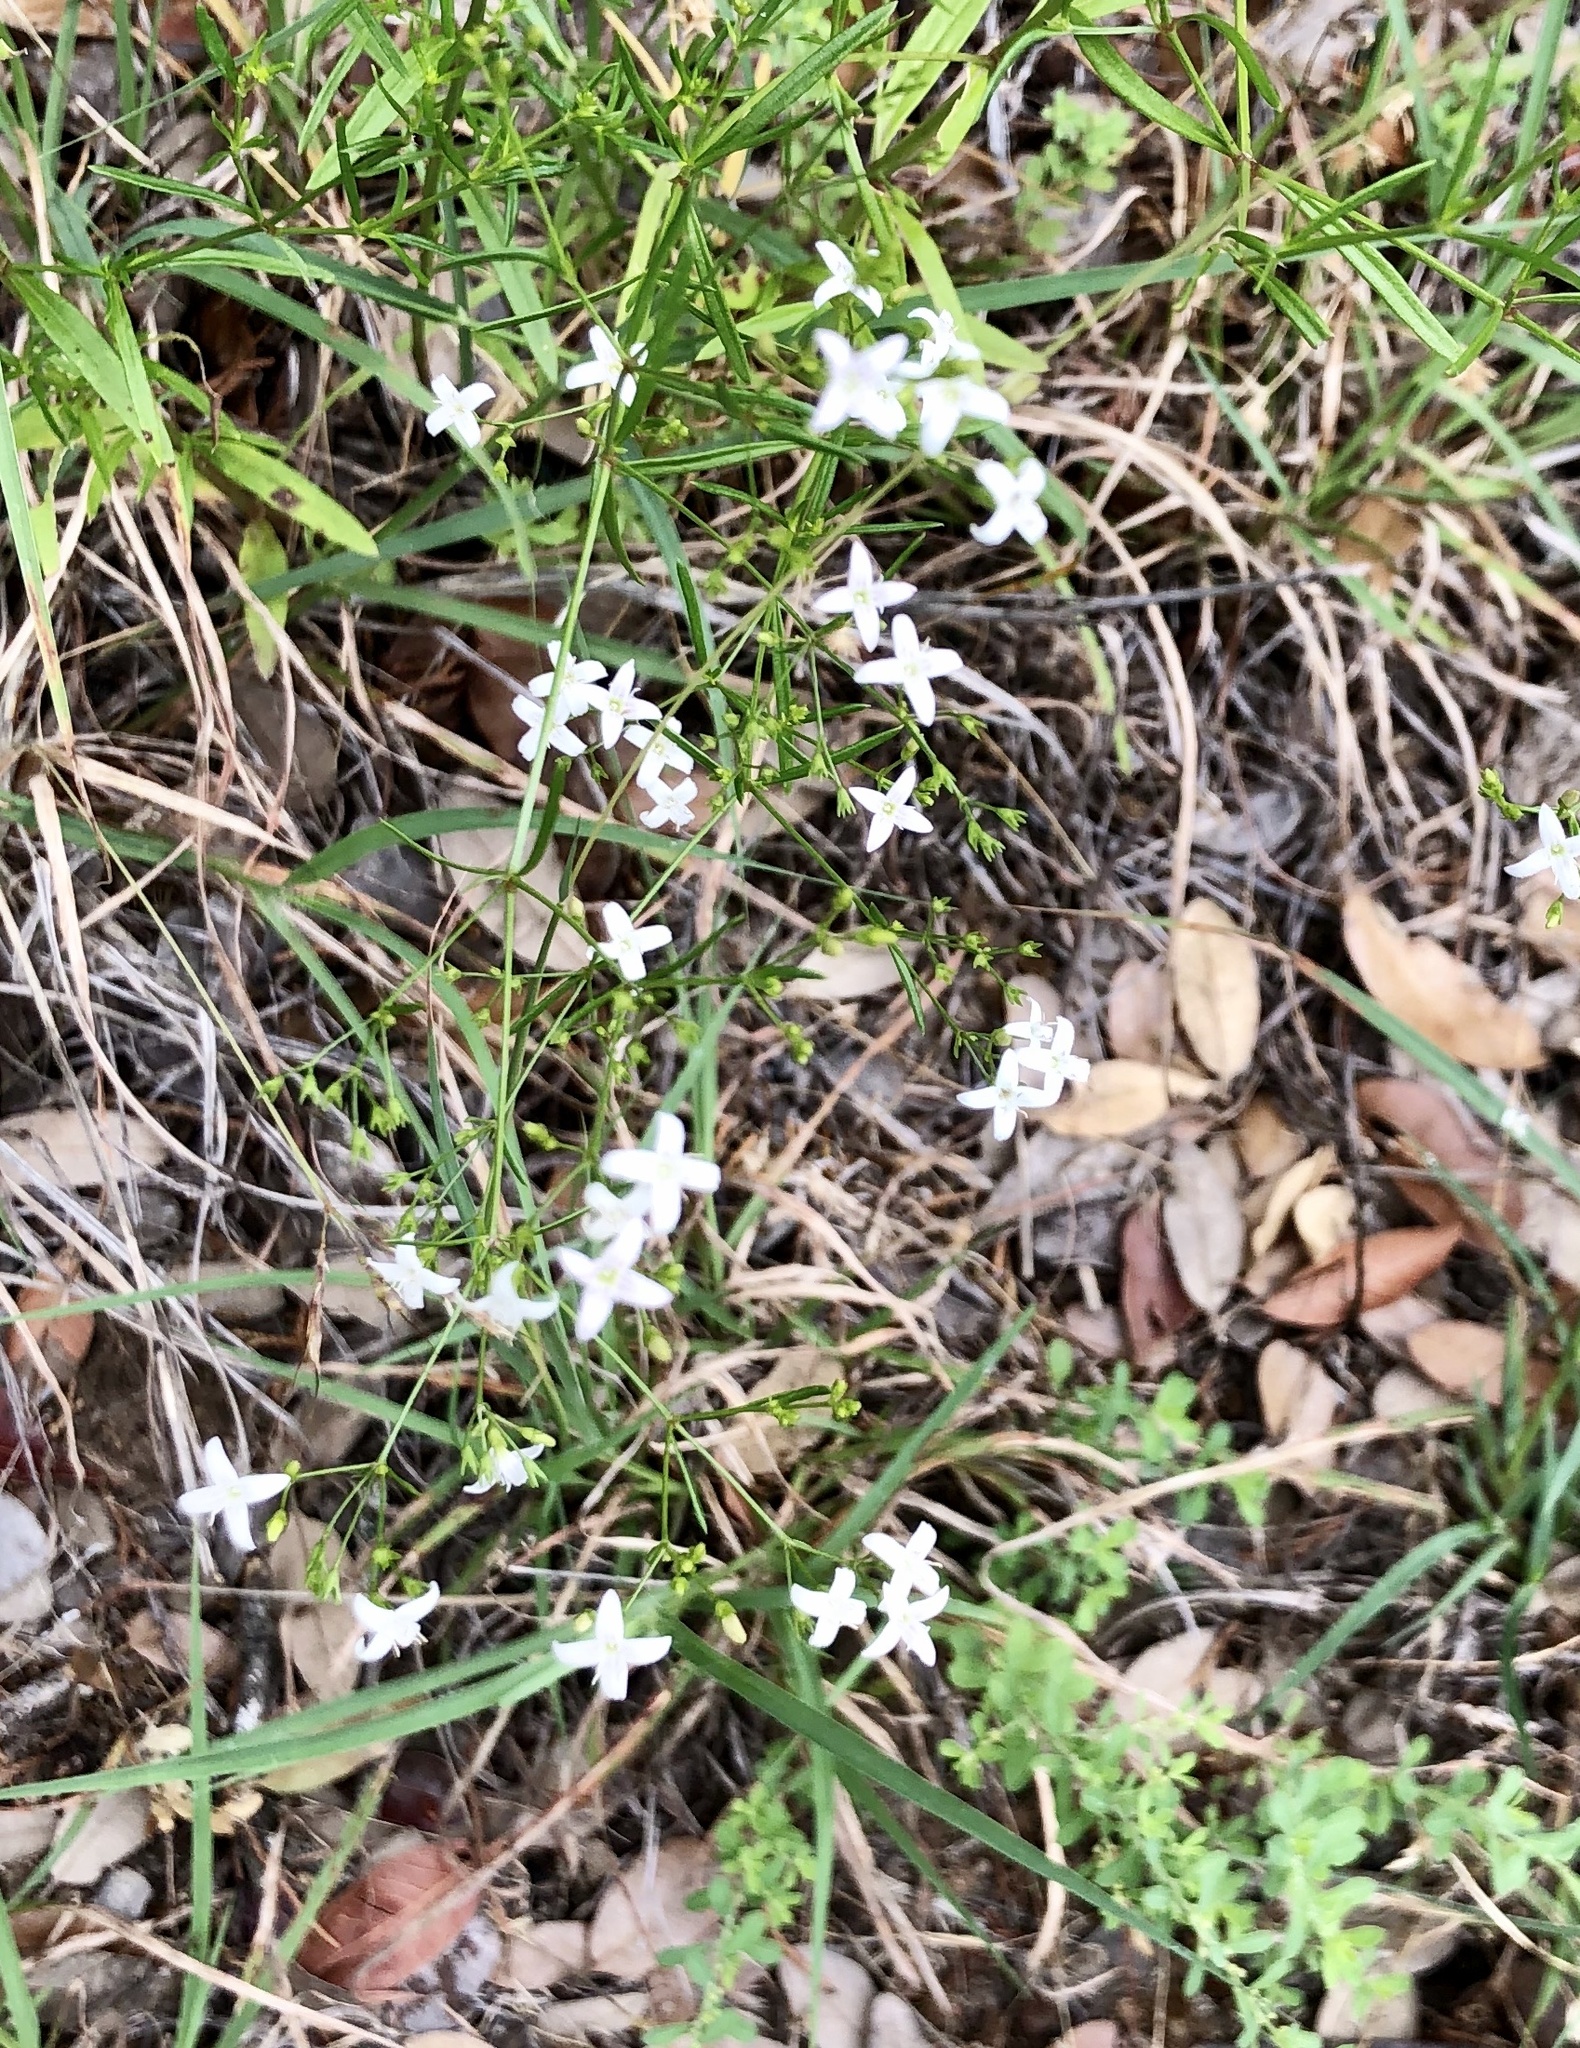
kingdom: Plantae
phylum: Tracheophyta
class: Magnoliopsida
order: Gentianales
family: Rubiaceae
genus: Stenaria
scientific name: Stenaria nigricans
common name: Diamondflowers
